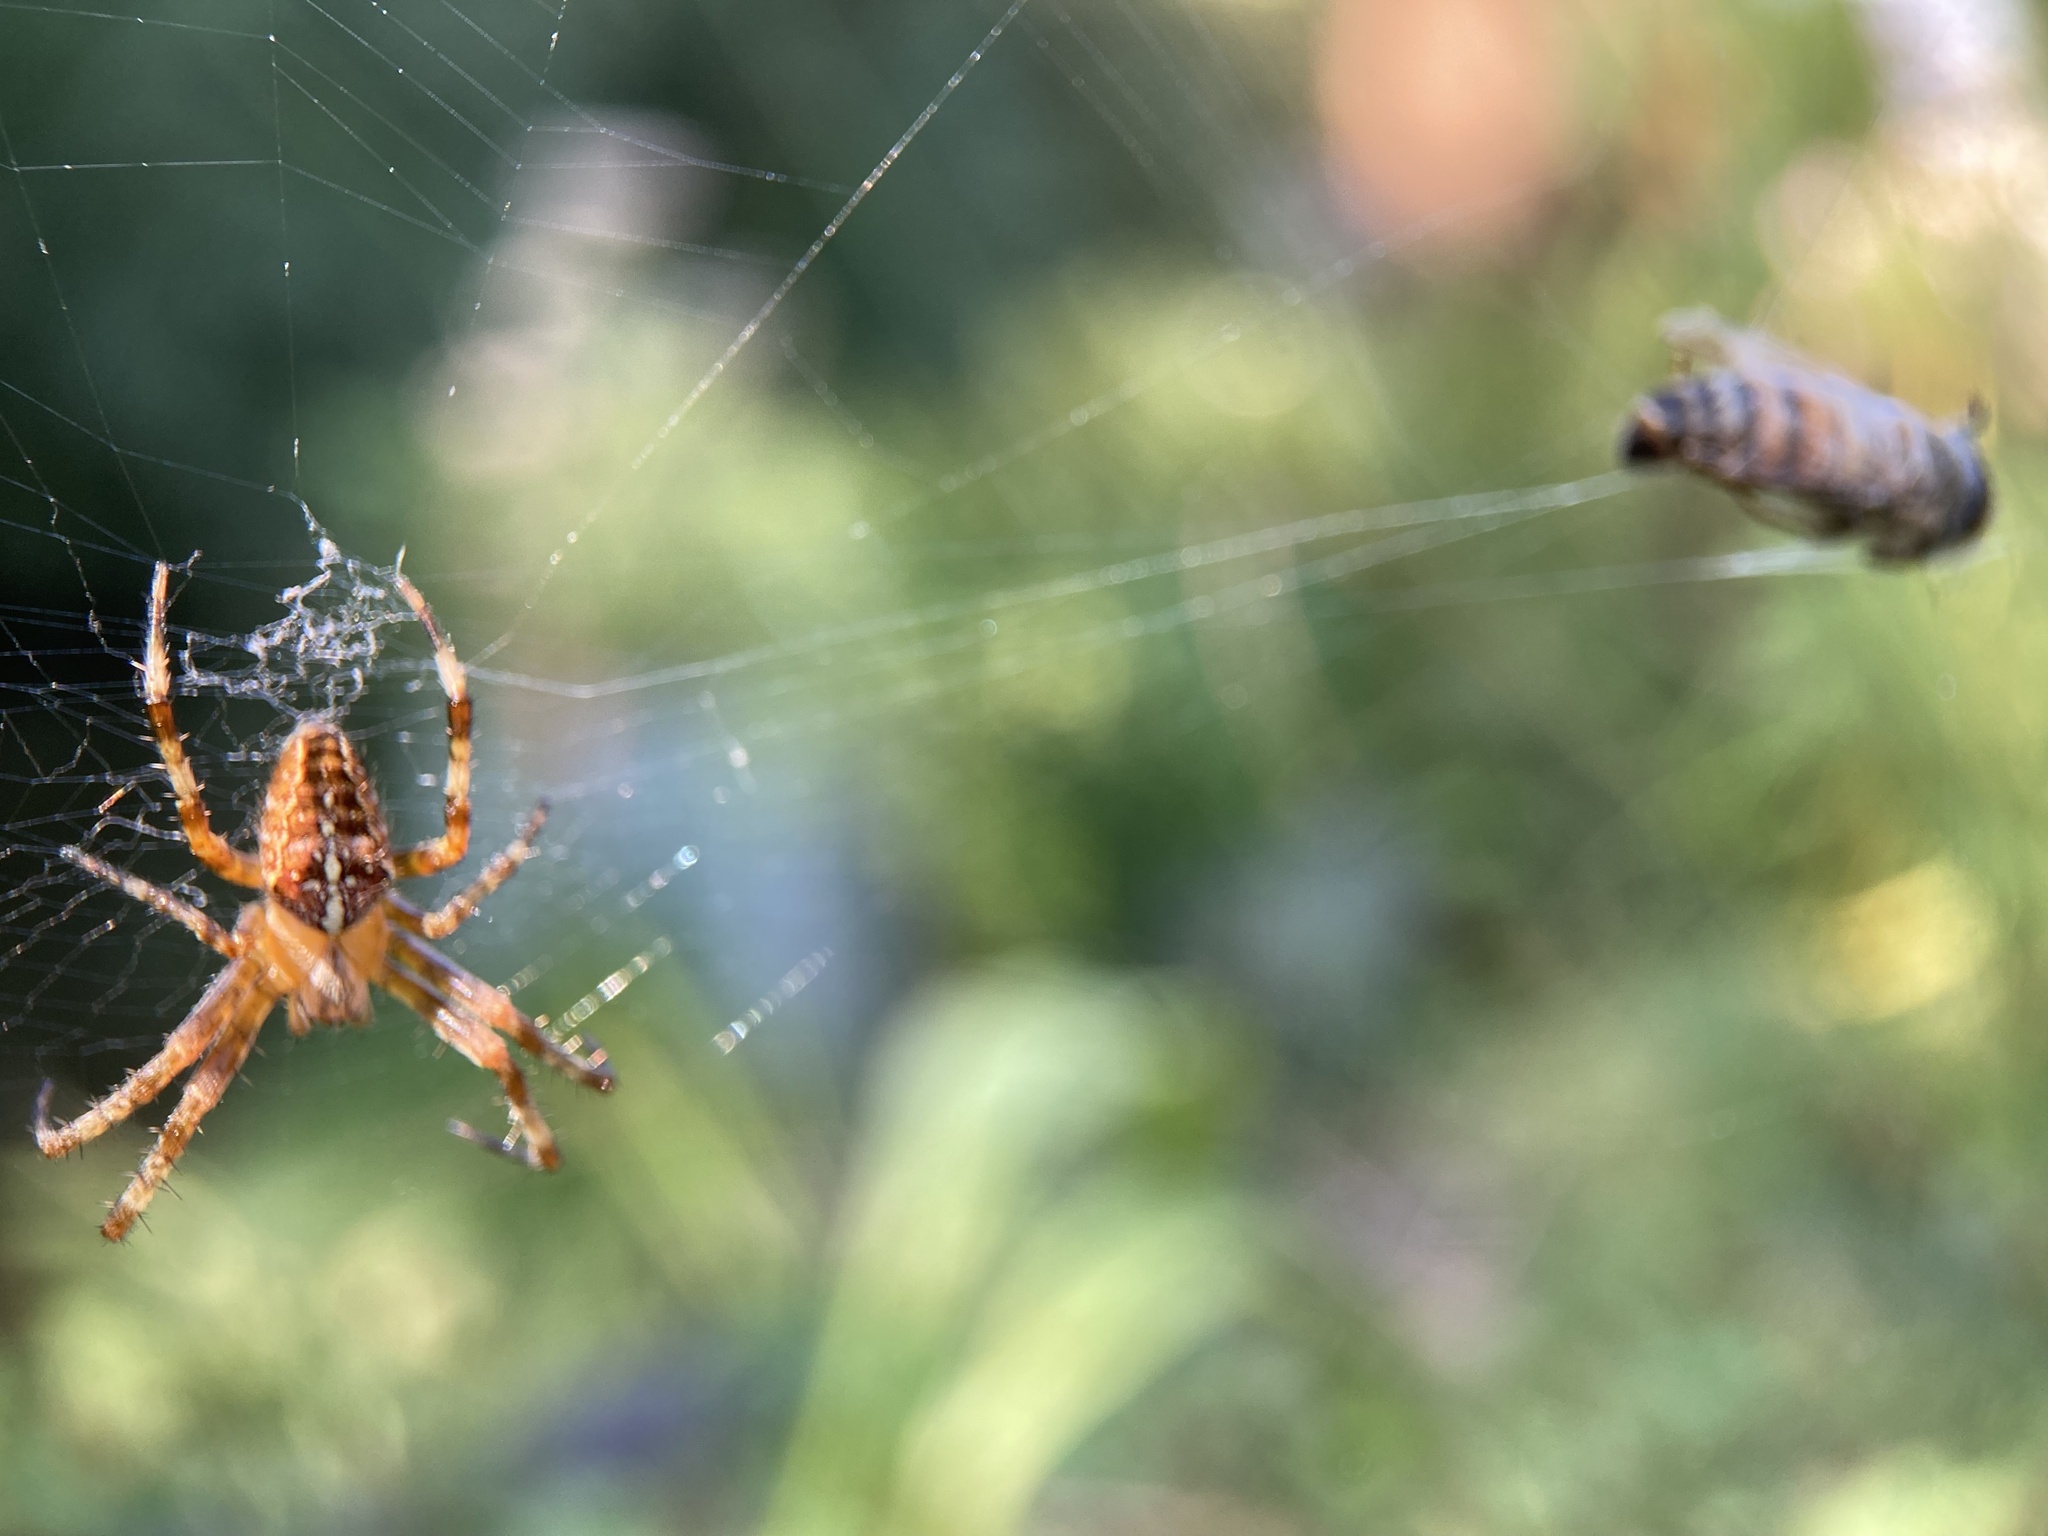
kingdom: Animalia
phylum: Arthropoda
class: Arachnida
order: Araneae
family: Araneidae
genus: Araneus
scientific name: Araneus diadematus
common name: Cross orbweaver
